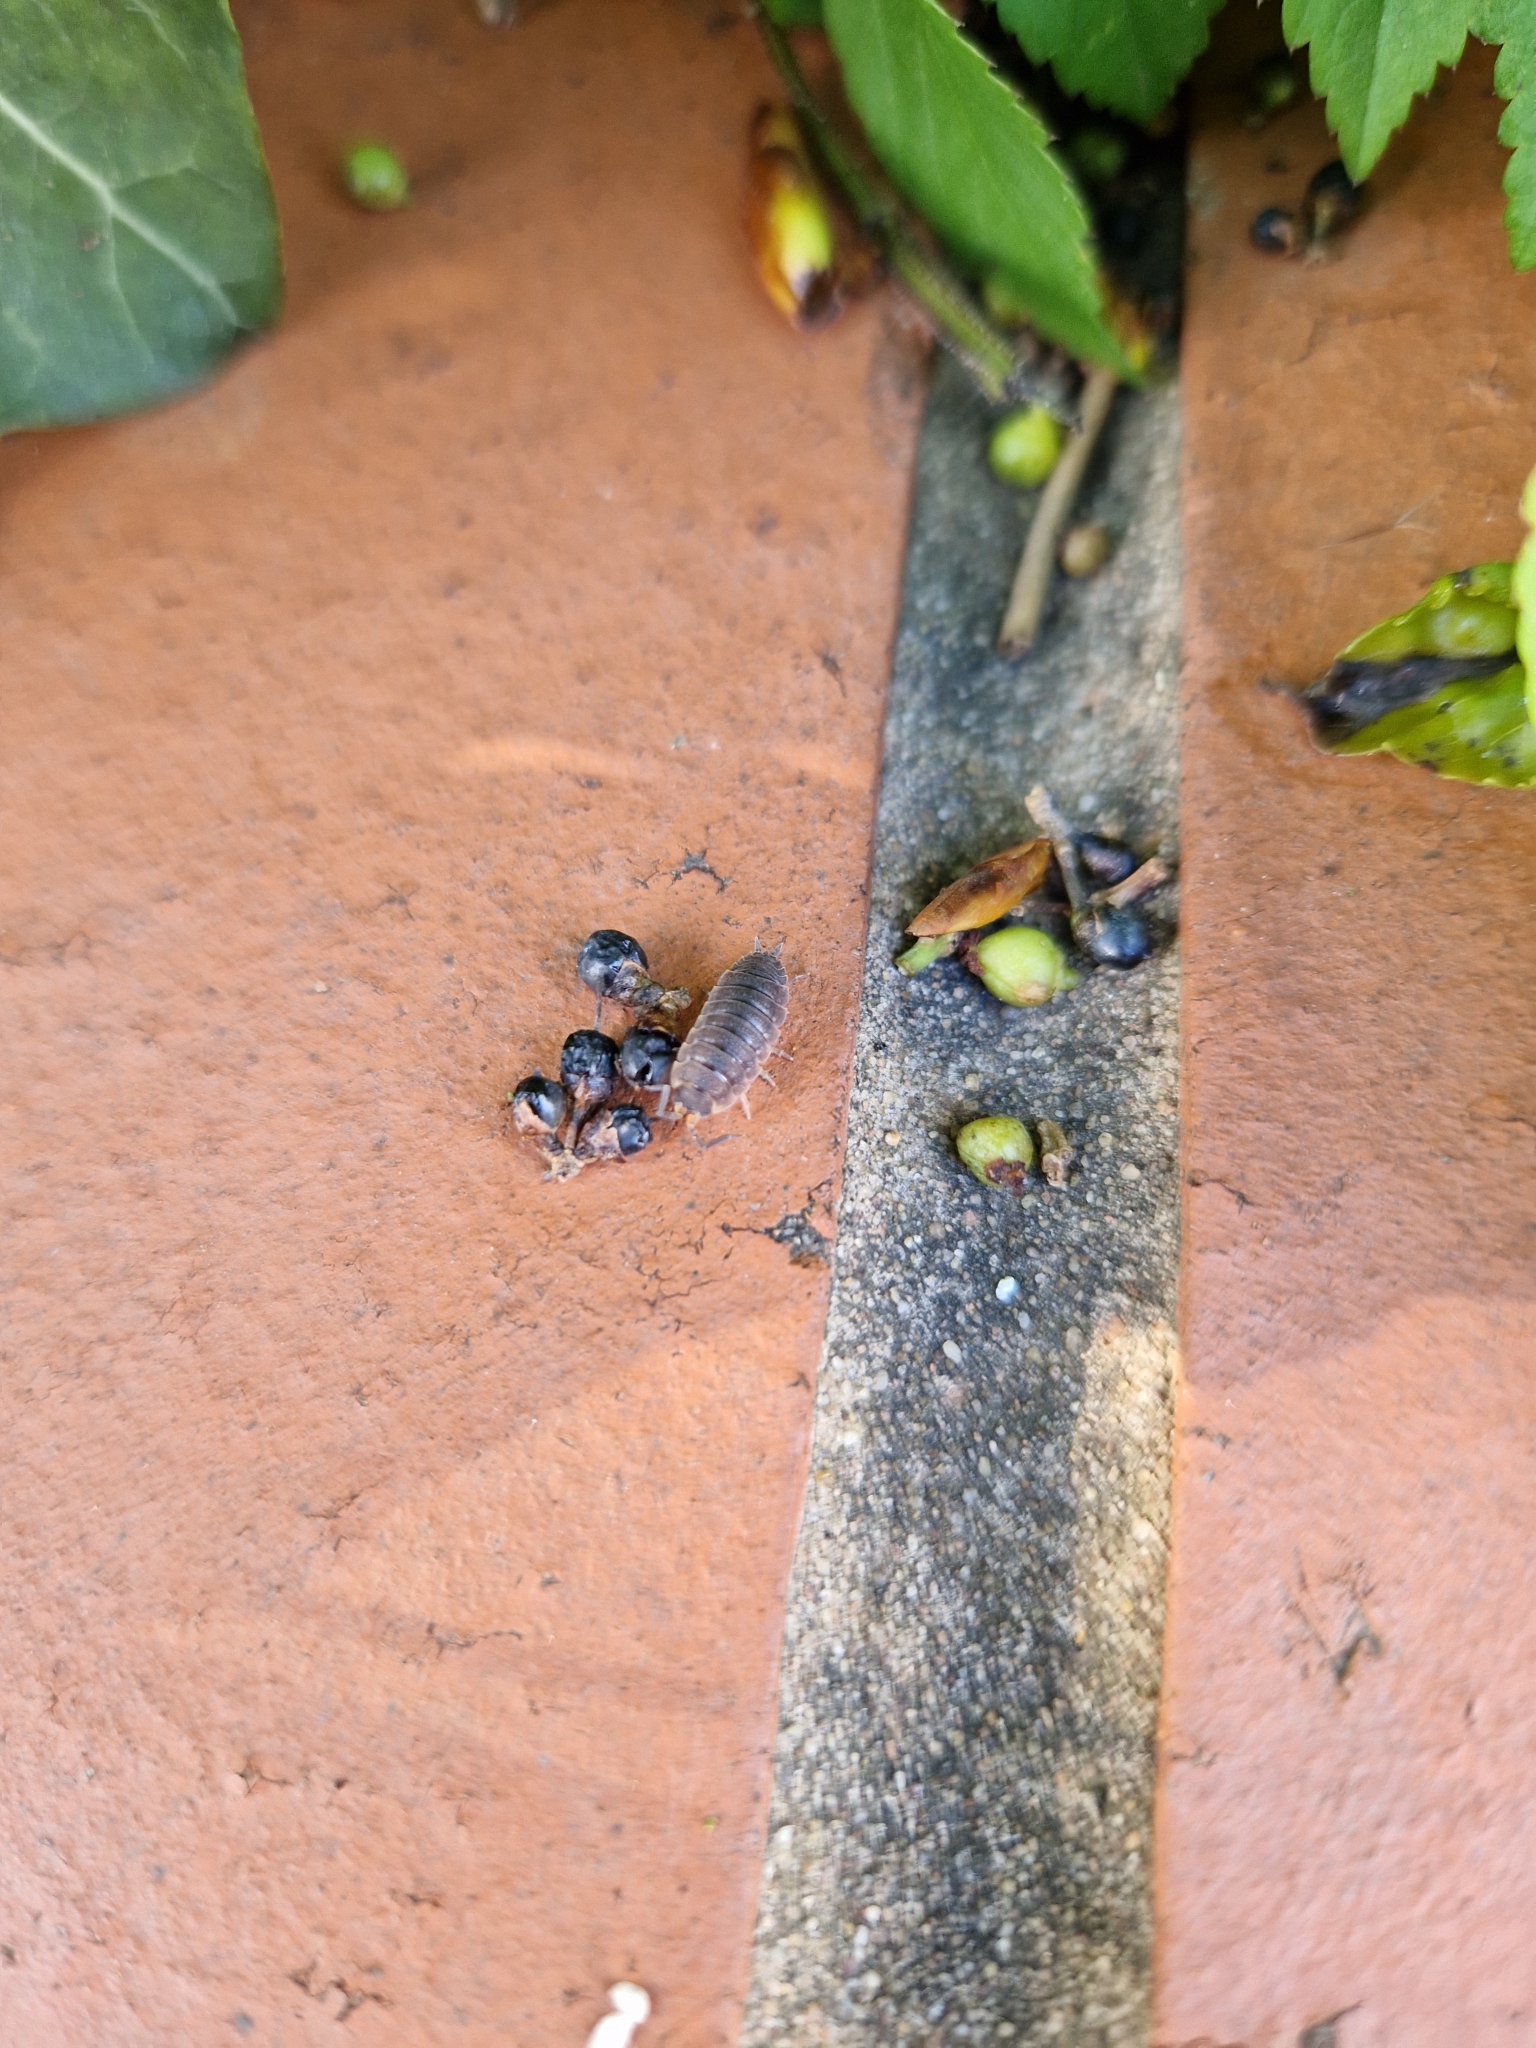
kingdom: Animalia
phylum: Arthropoda
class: Malacostraca
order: Isopoda
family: Porcellionidae
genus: Porcellio
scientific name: Porcellio scaber
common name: Common rough woodlouse
